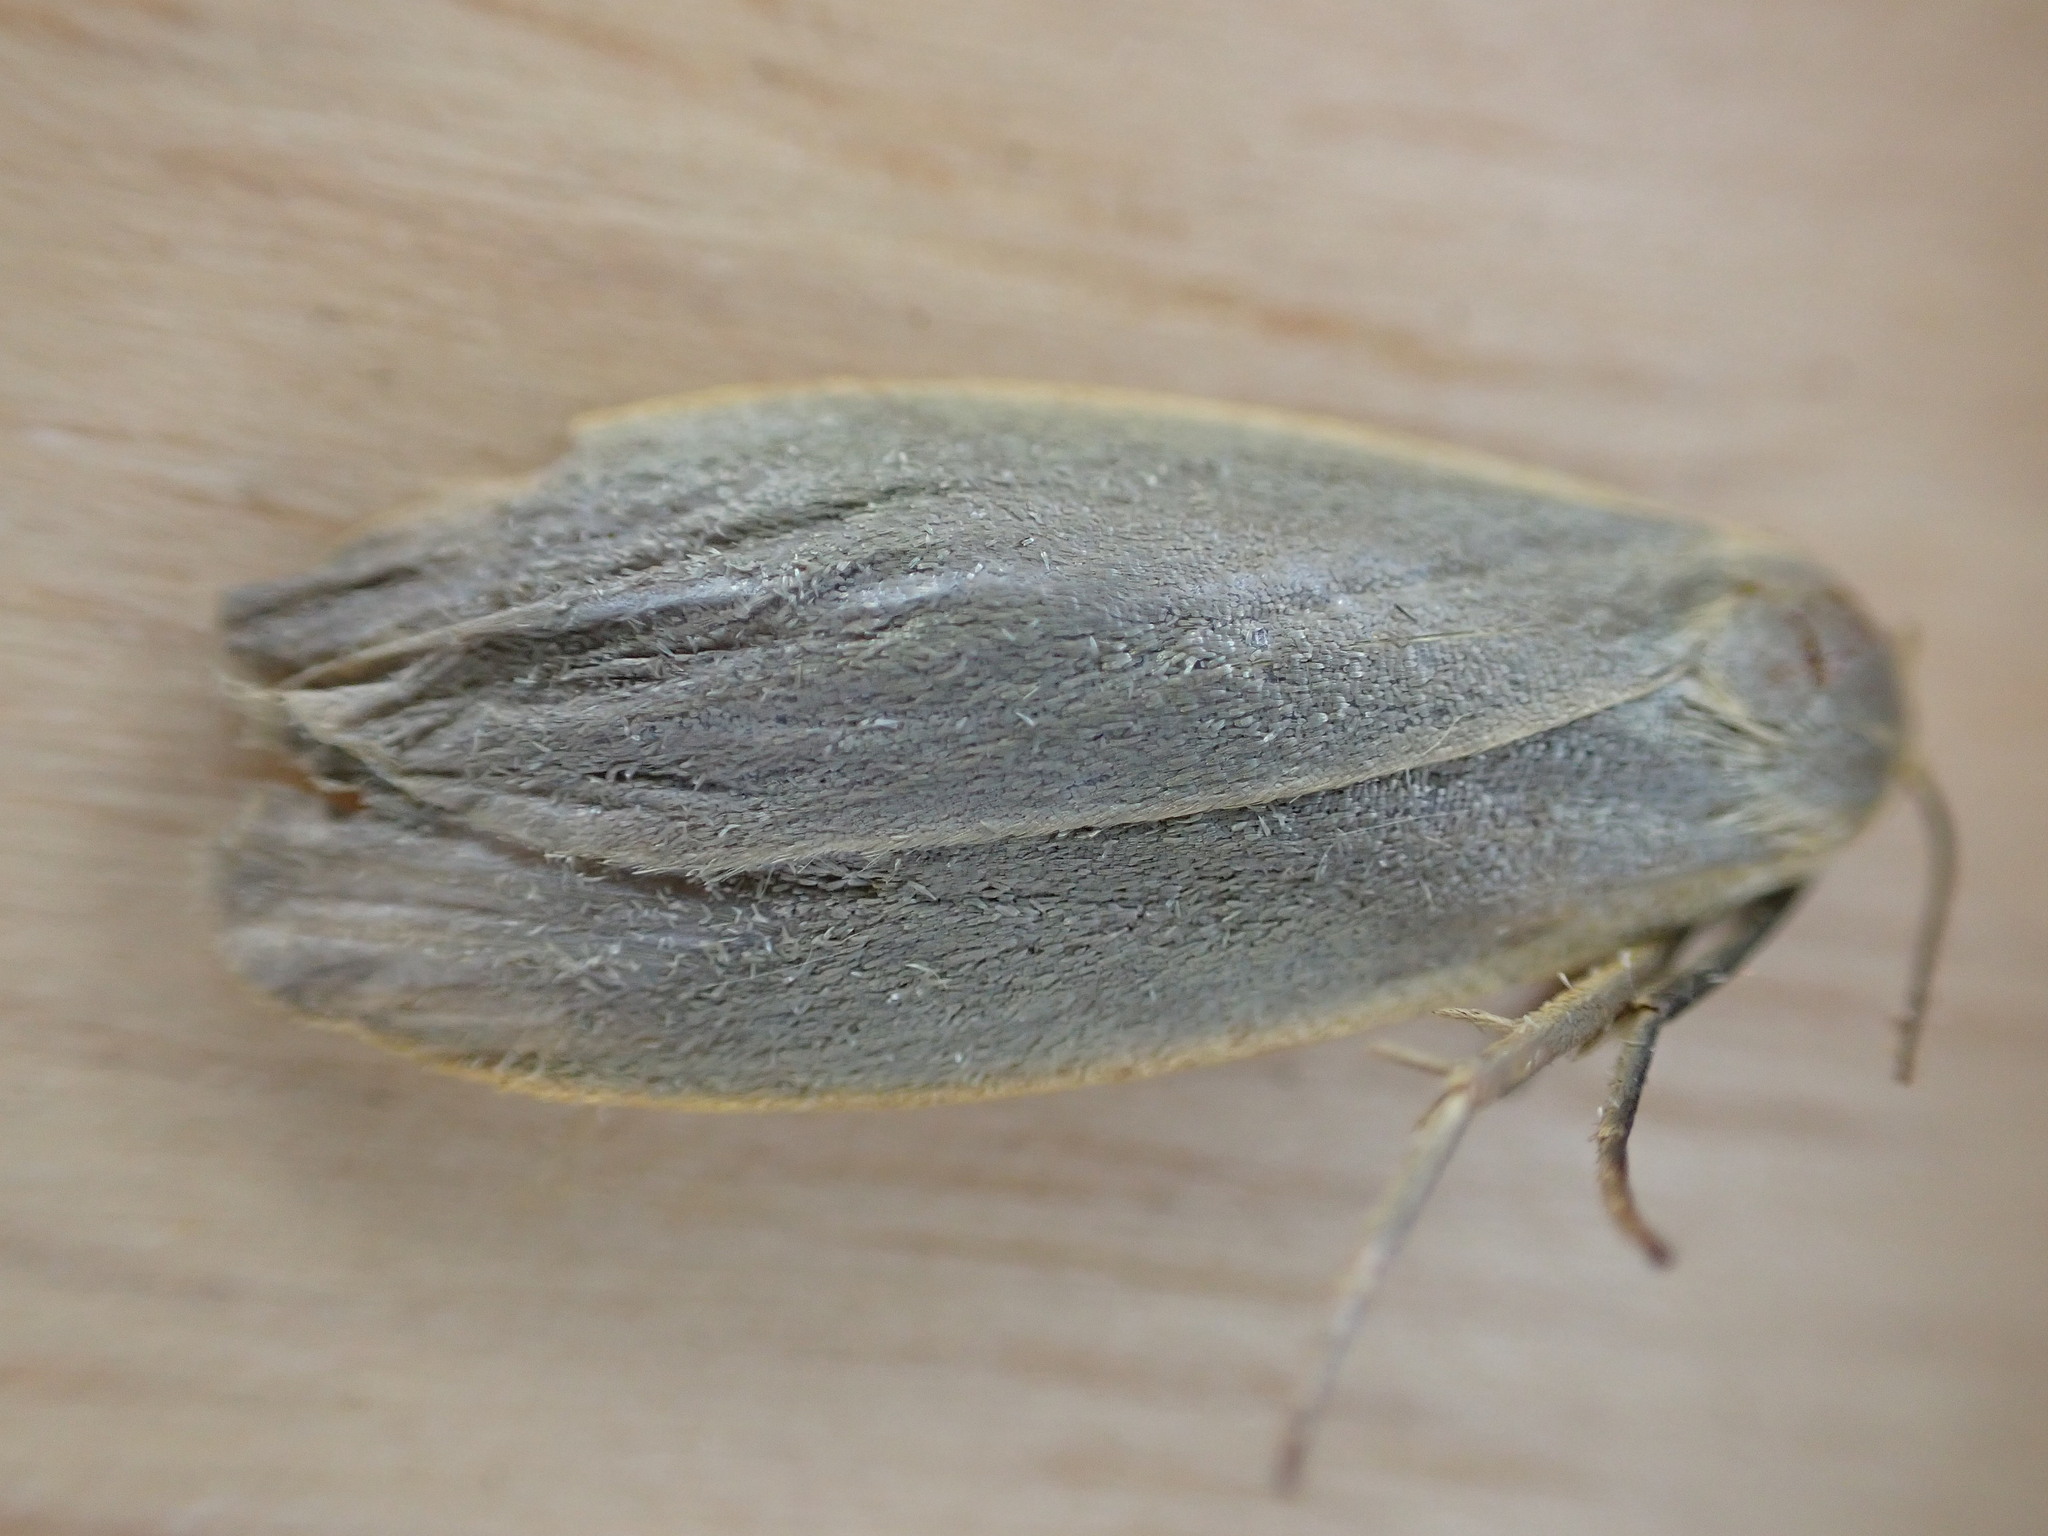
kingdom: Animalia
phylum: Arthropoda
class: Insecta
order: Lepidoptera
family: Erebidae
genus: Collita
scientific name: Collita griseola
